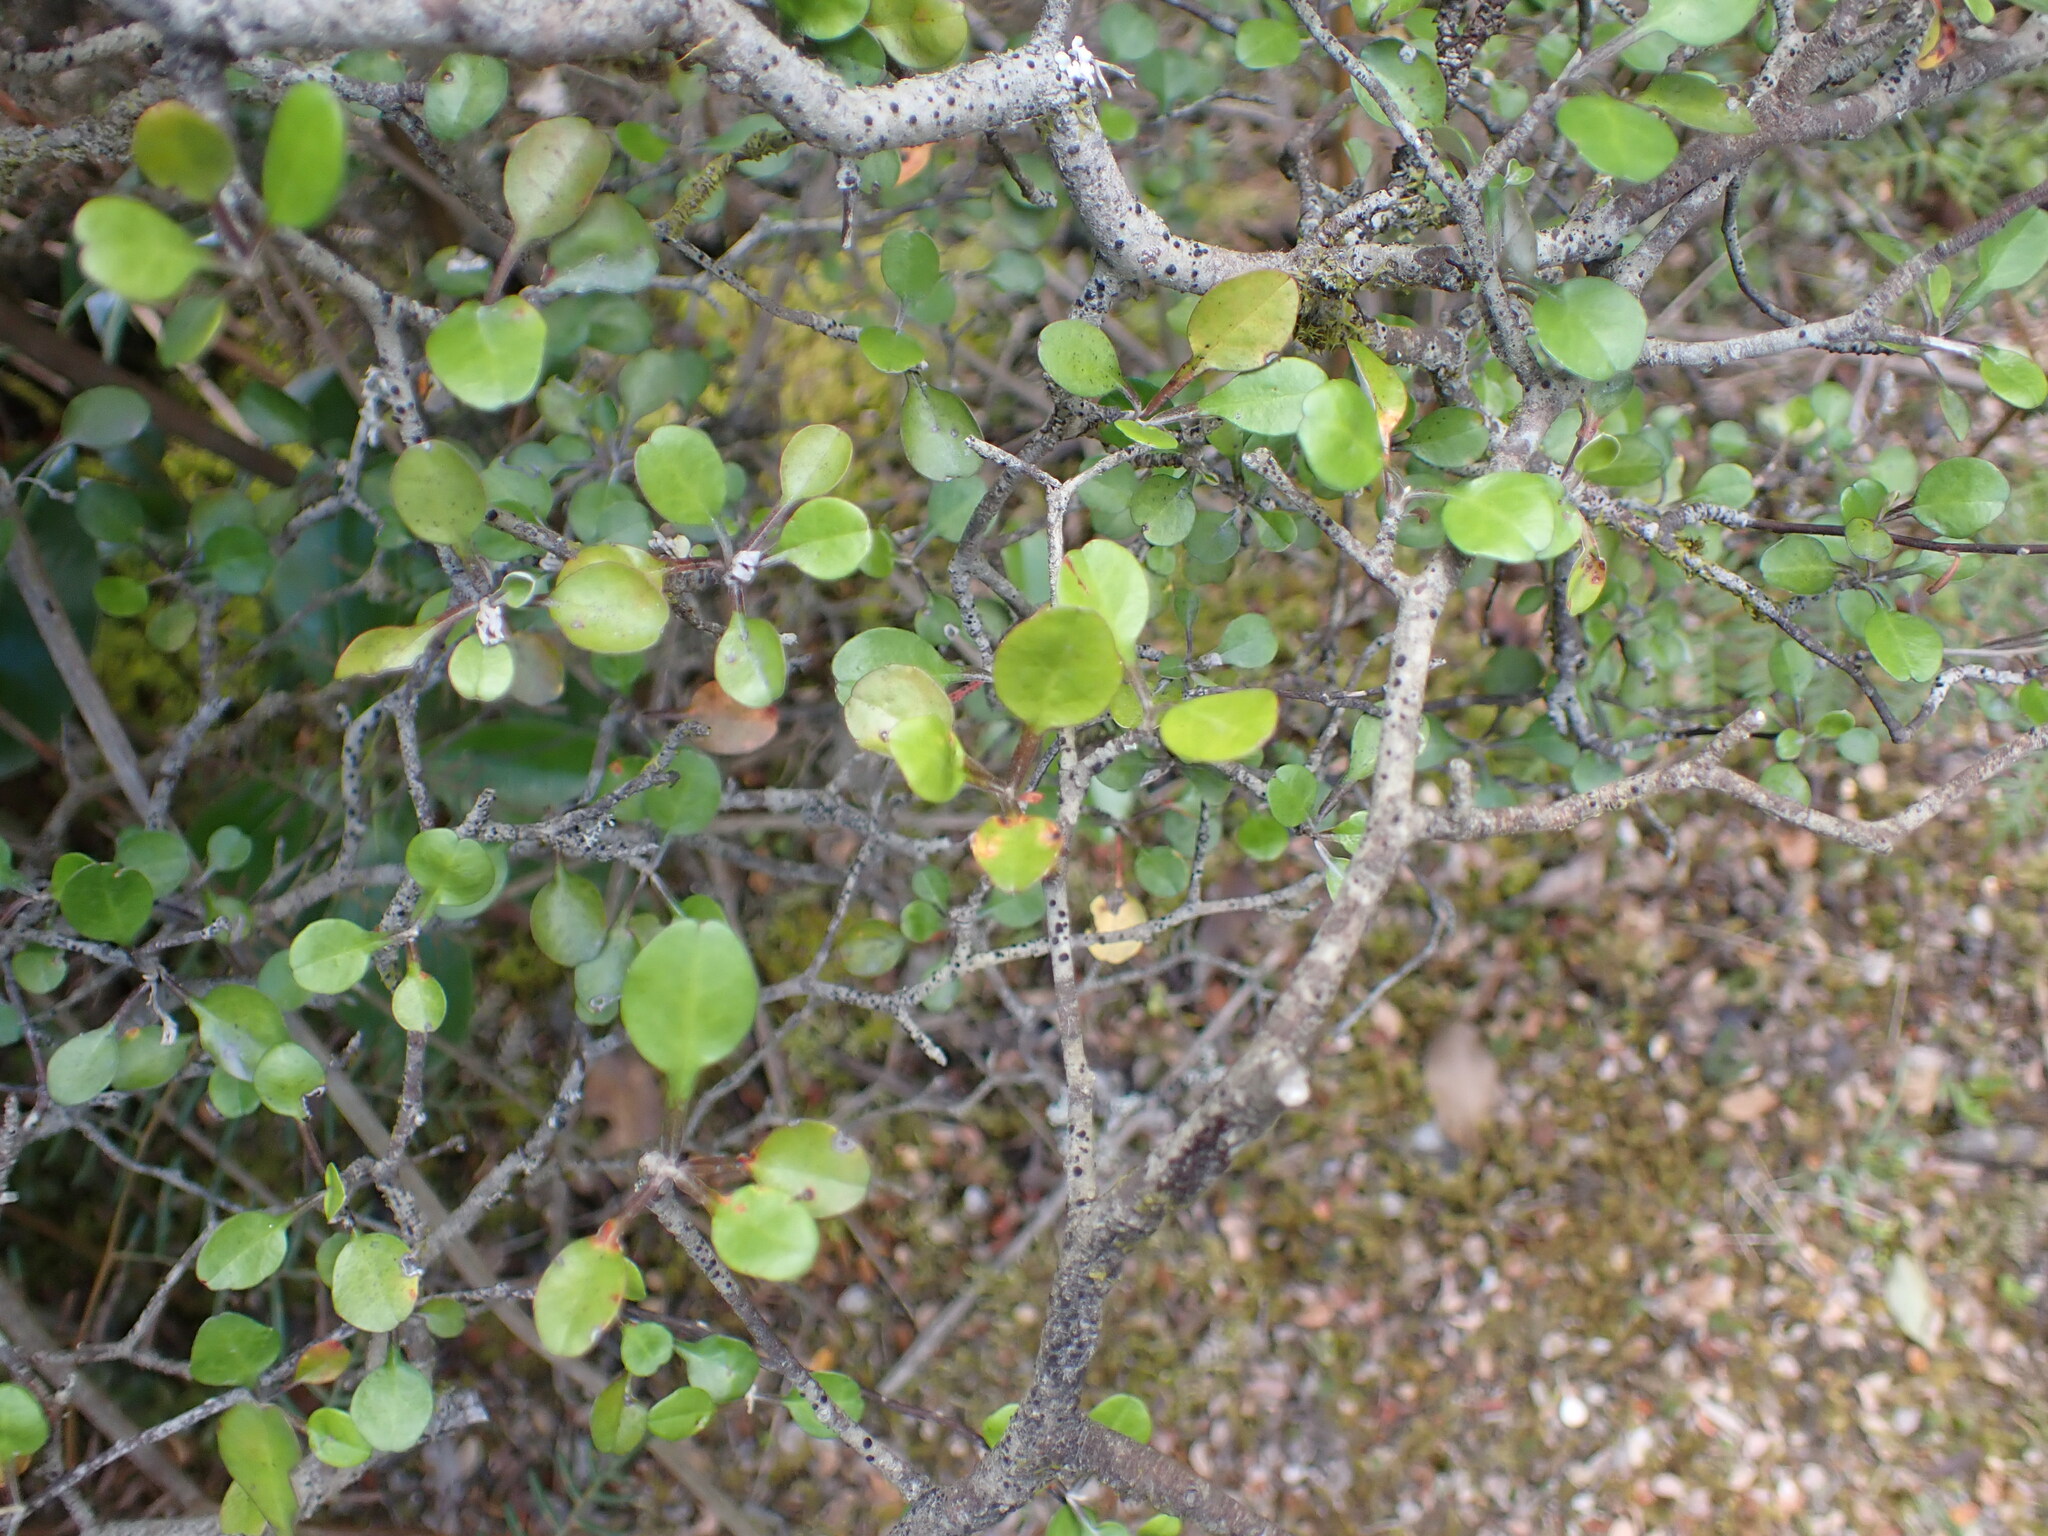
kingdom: Plantae
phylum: Tracheophyta
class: Magnoliopsida
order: Asterales
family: Argophyllaceae
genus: Corokia
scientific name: Corokia cotoneaster
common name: Wire nettingbush
